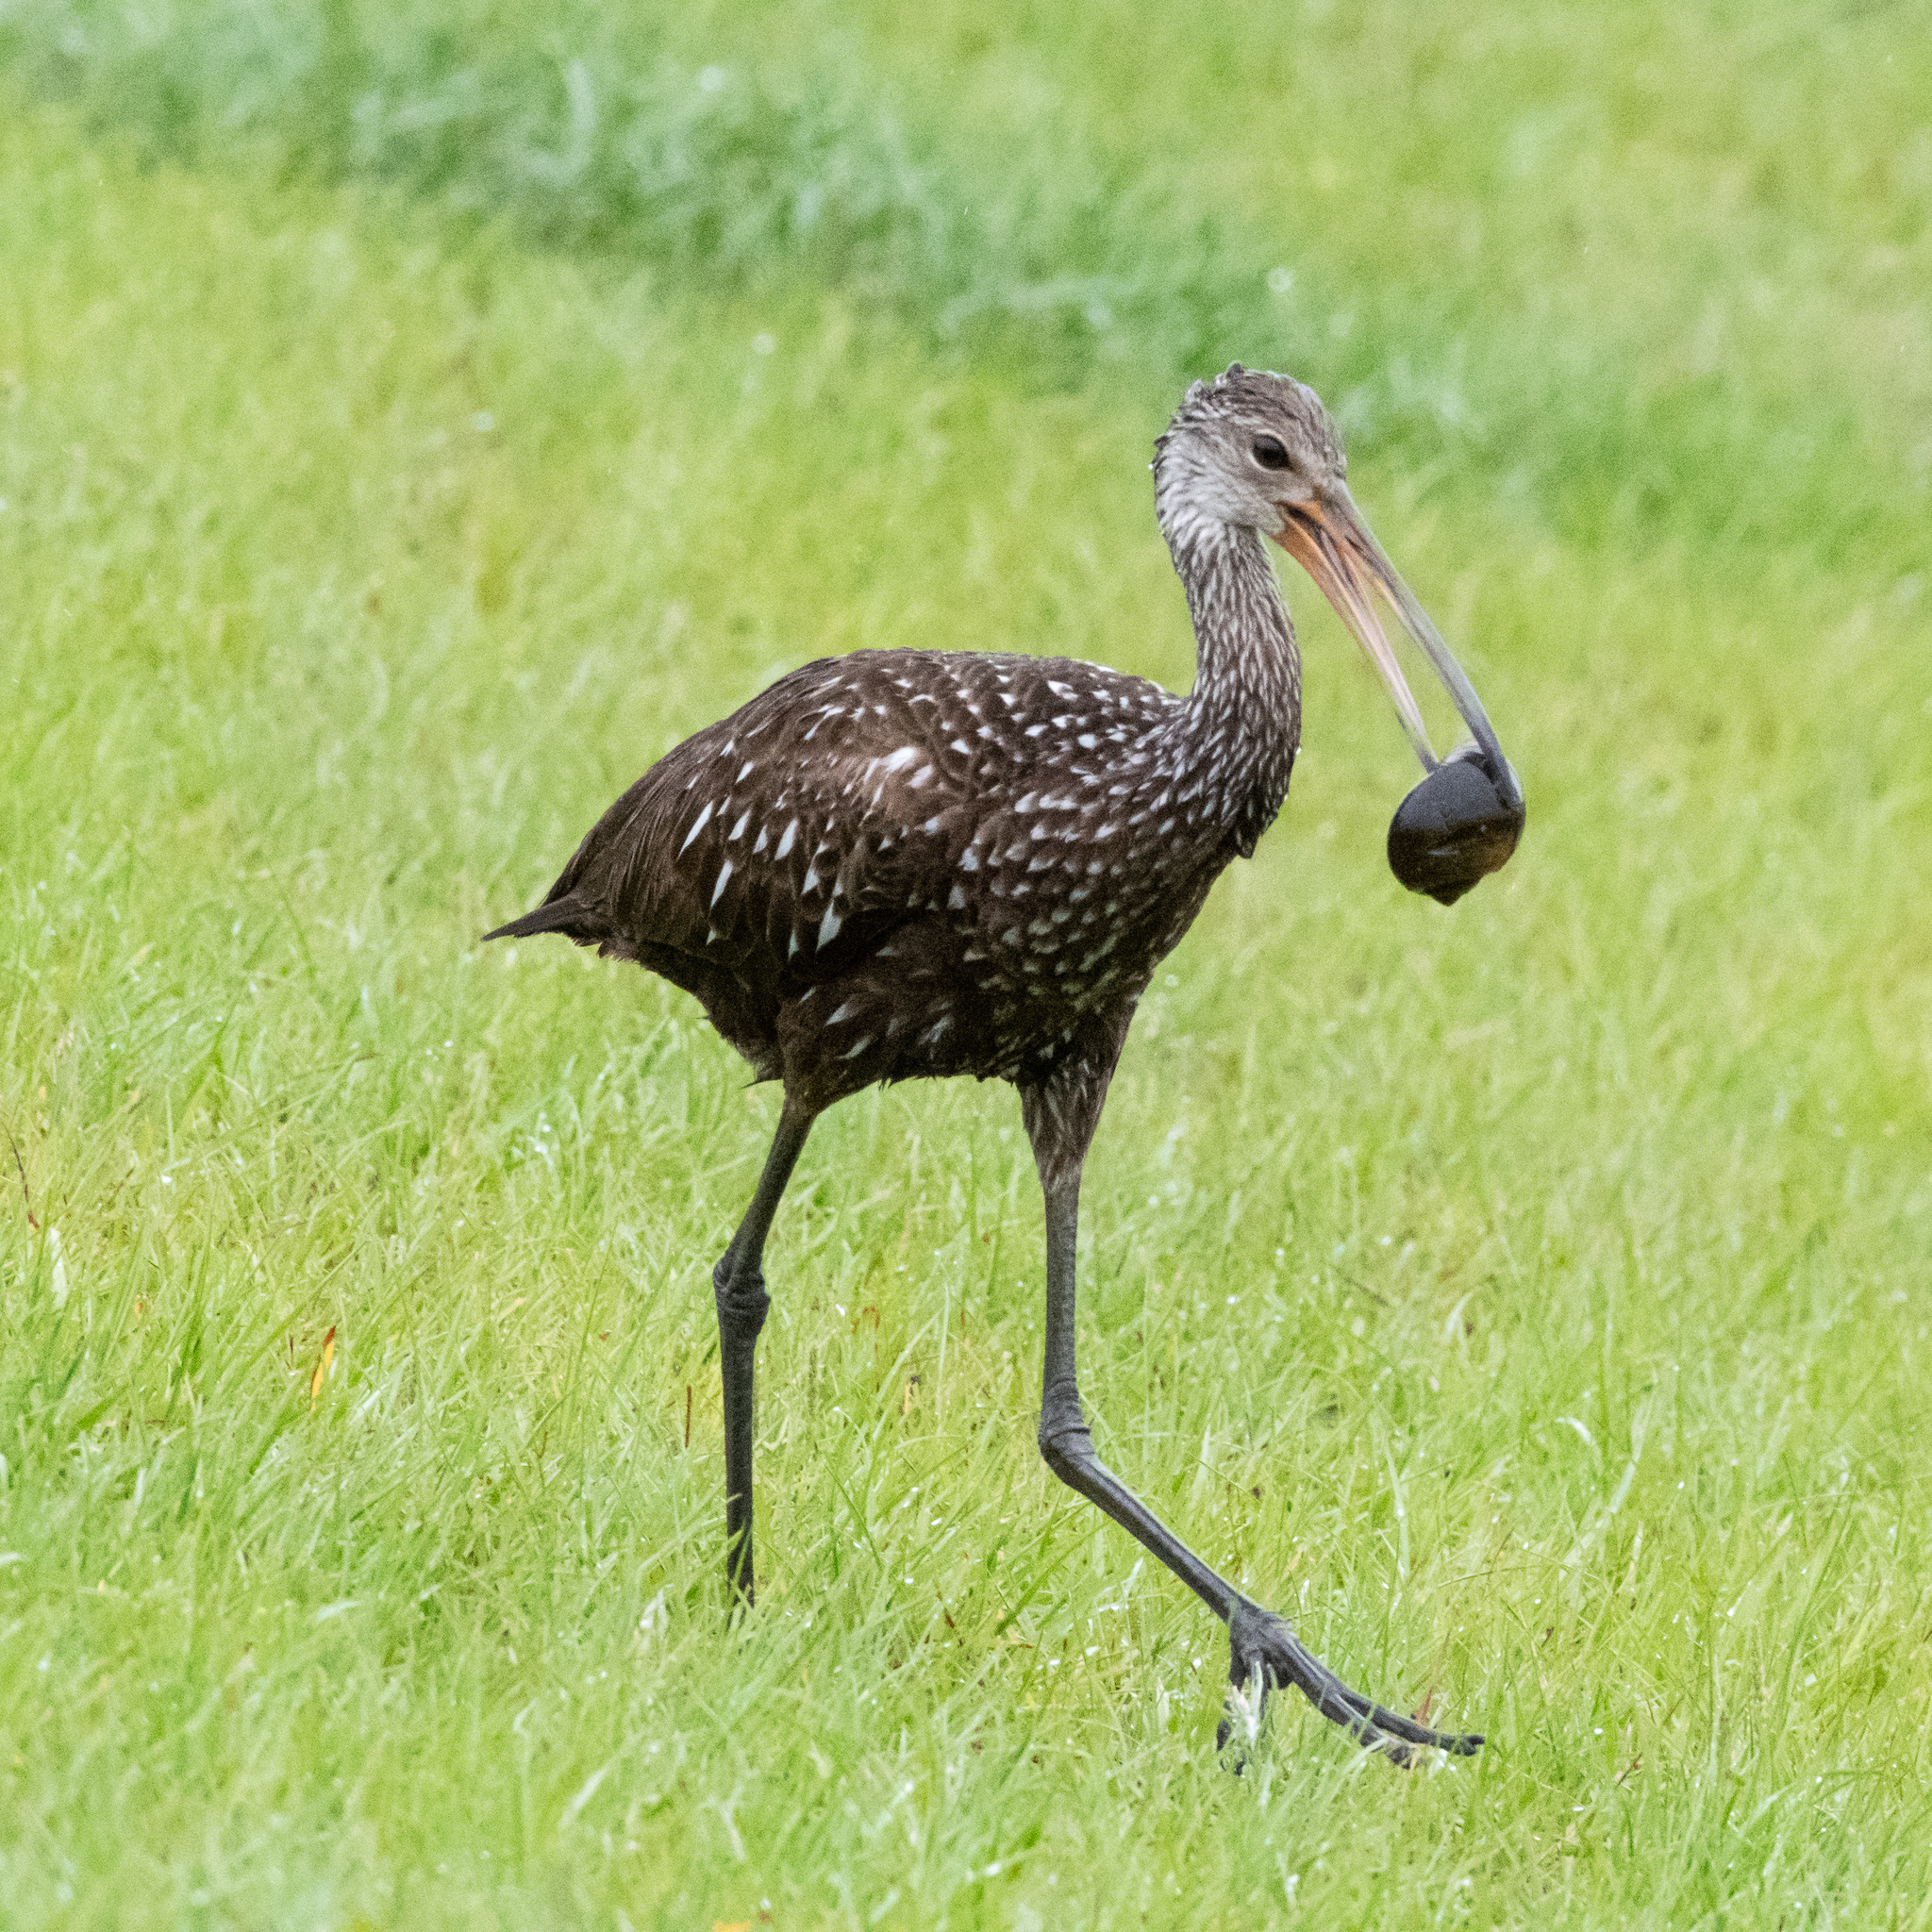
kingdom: Animalia
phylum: Chordata
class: Aves
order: Gruiformes
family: Aramidae
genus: Aramus
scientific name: Aramus guarauna
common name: Limpkin
